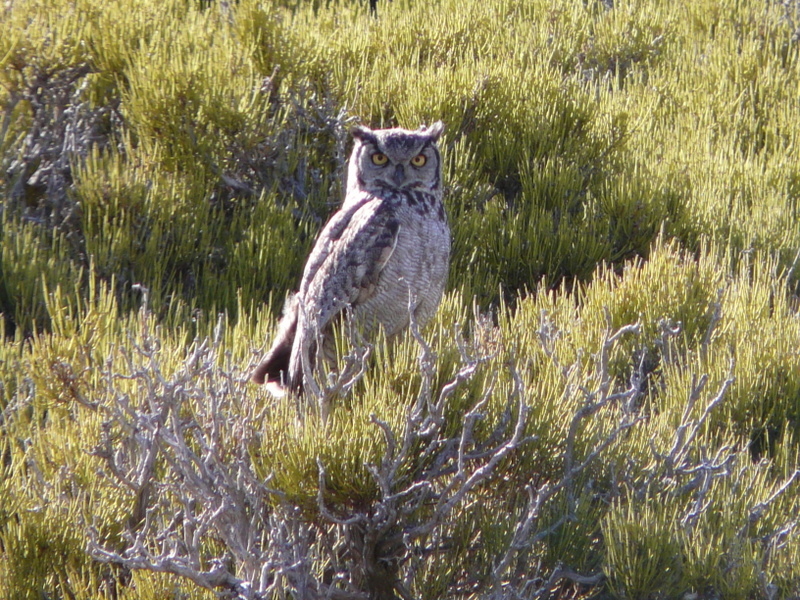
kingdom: Animalia
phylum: Chordata
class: Aves
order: Strigiformes
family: Strigidae
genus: Bubo
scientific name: Bubo magellanicus
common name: Lesser horned owl
